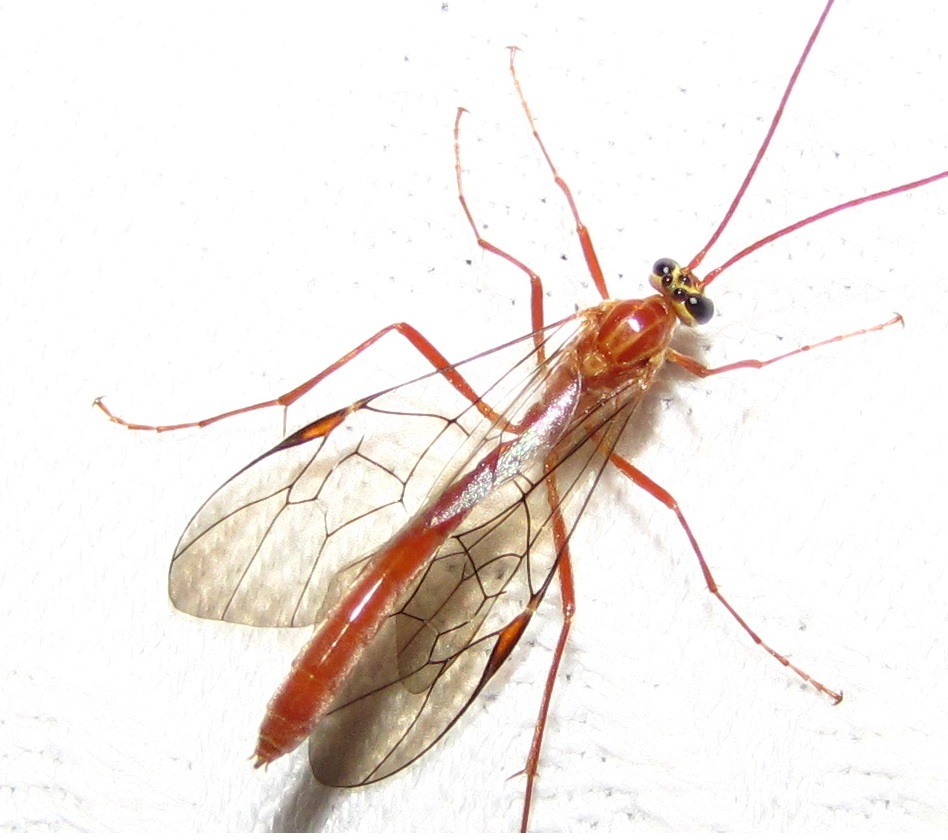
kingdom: Animalia
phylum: Arthropoda
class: Insecta
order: Hymenoptera
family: Ichneumonidae
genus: Ophion
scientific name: Ophion
